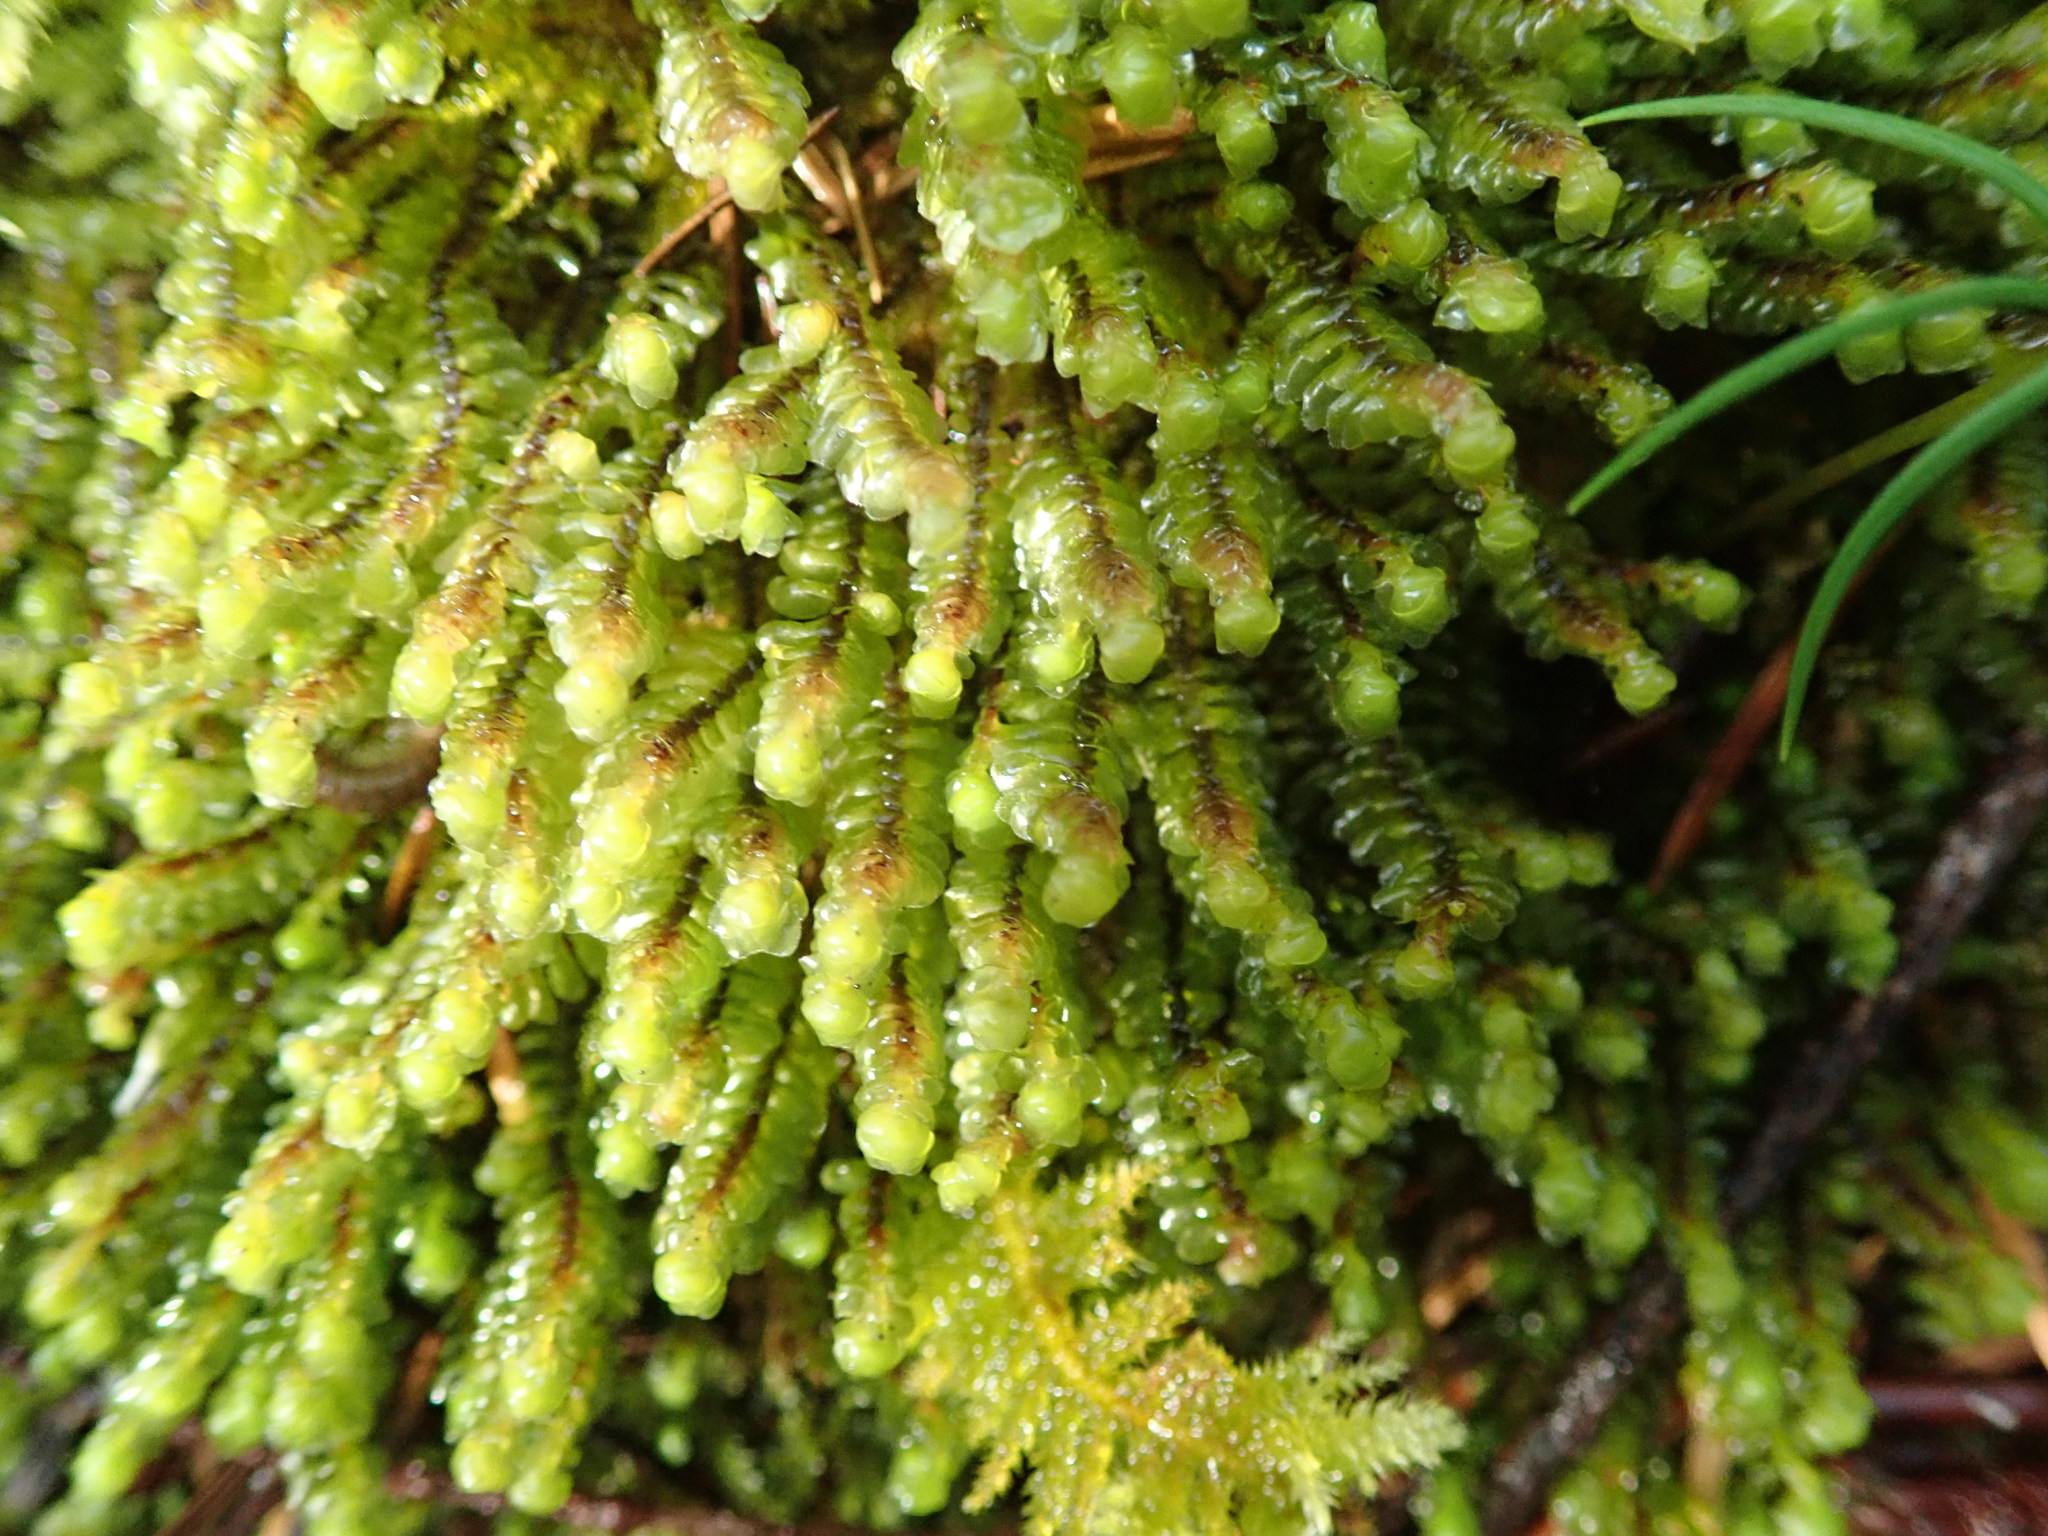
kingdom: Plantae
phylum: Marchantiophyta
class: Jungermanniopsida
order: Jungermanniales
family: Scapaniaceae
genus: Scapania
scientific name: Scapania americana
